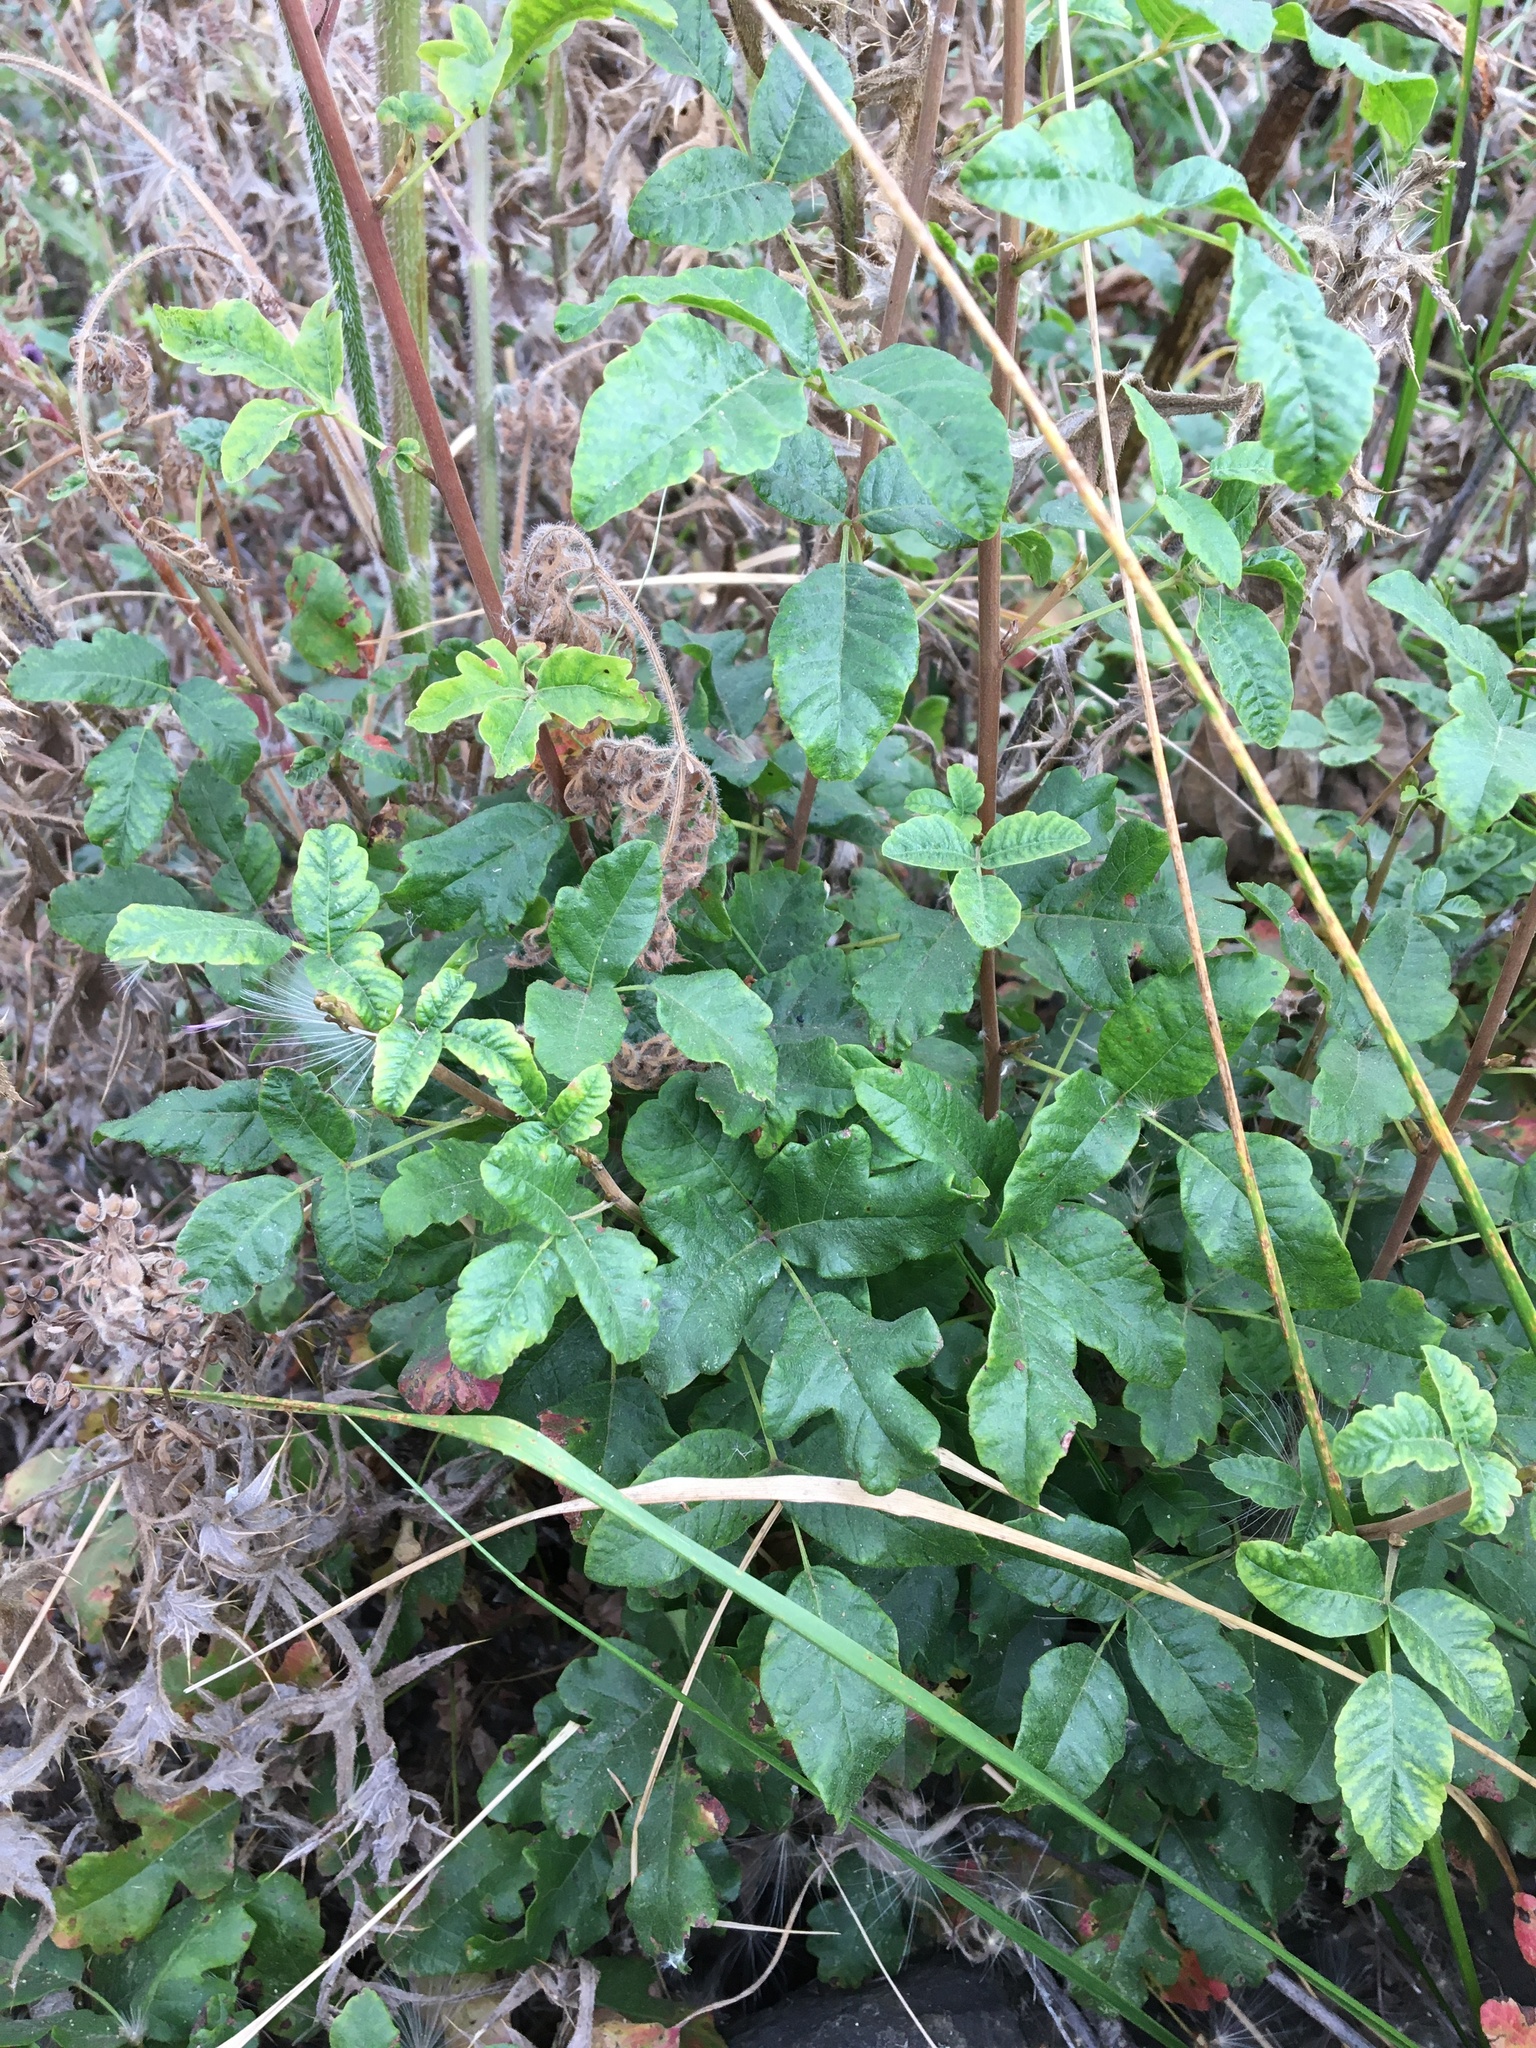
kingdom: Plantae
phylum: Tracheophyta
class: Magnoliopsida
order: Sapindales
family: Anacardiaceae
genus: Toxicodendron
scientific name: Toxicodendron diversilobum
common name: Pacific poison-oak
